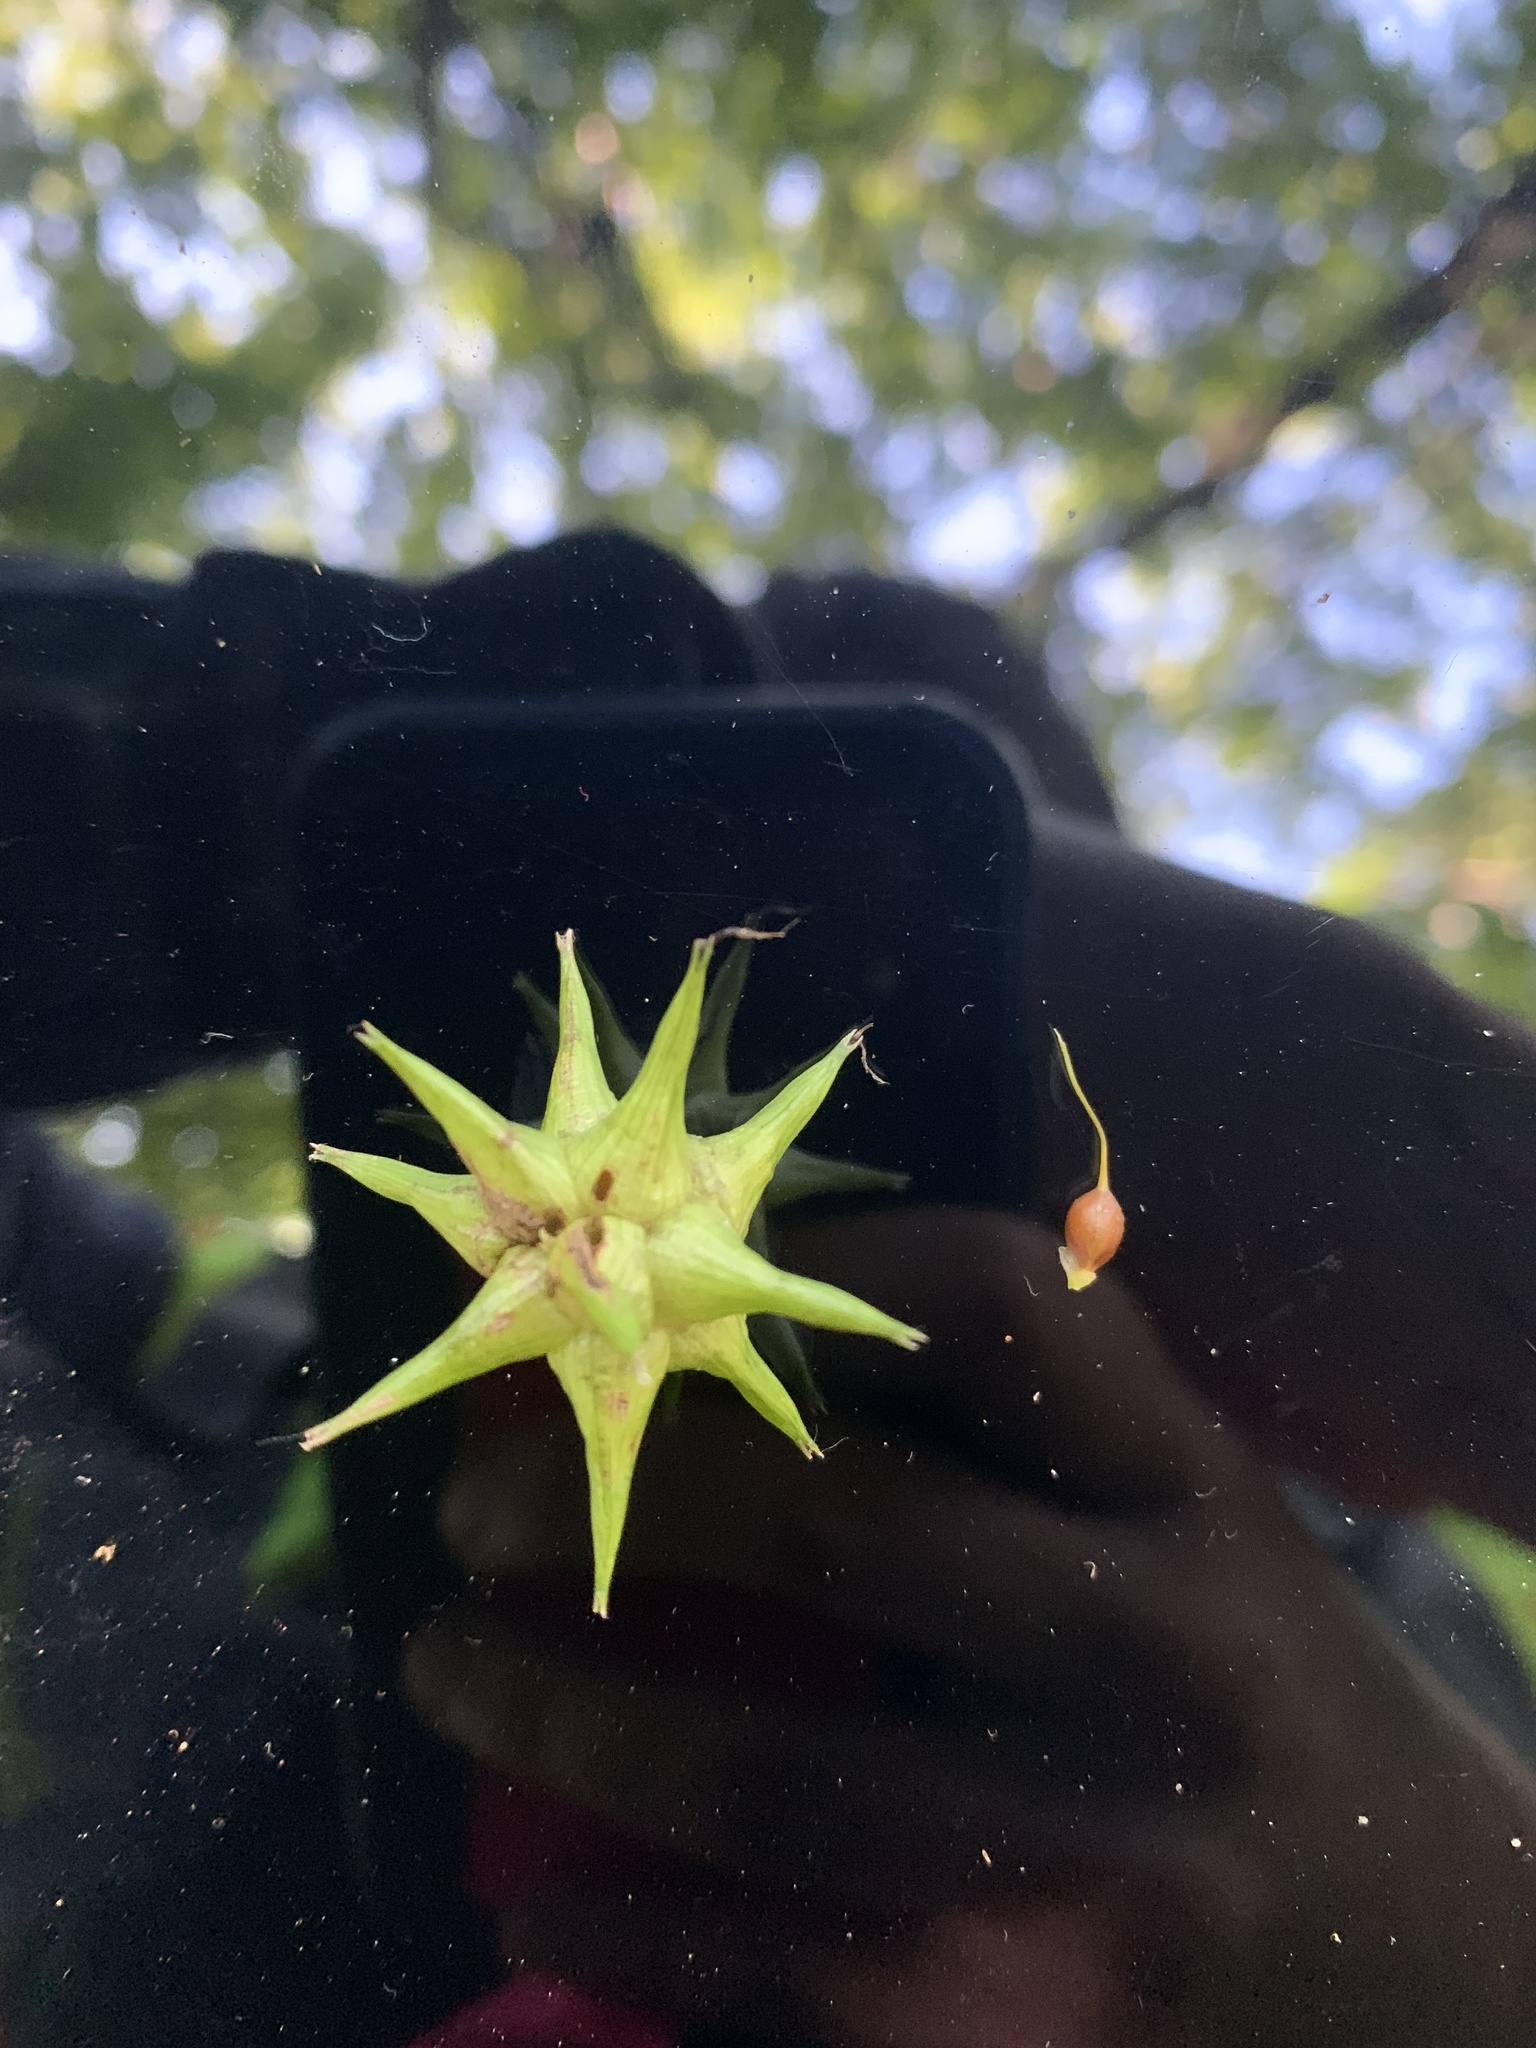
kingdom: Plantae
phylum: Tracheophyta
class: Liliopsida
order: Poales
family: Cyperaceae
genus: Carex
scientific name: Carex grayi
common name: Asa gray's sedge
